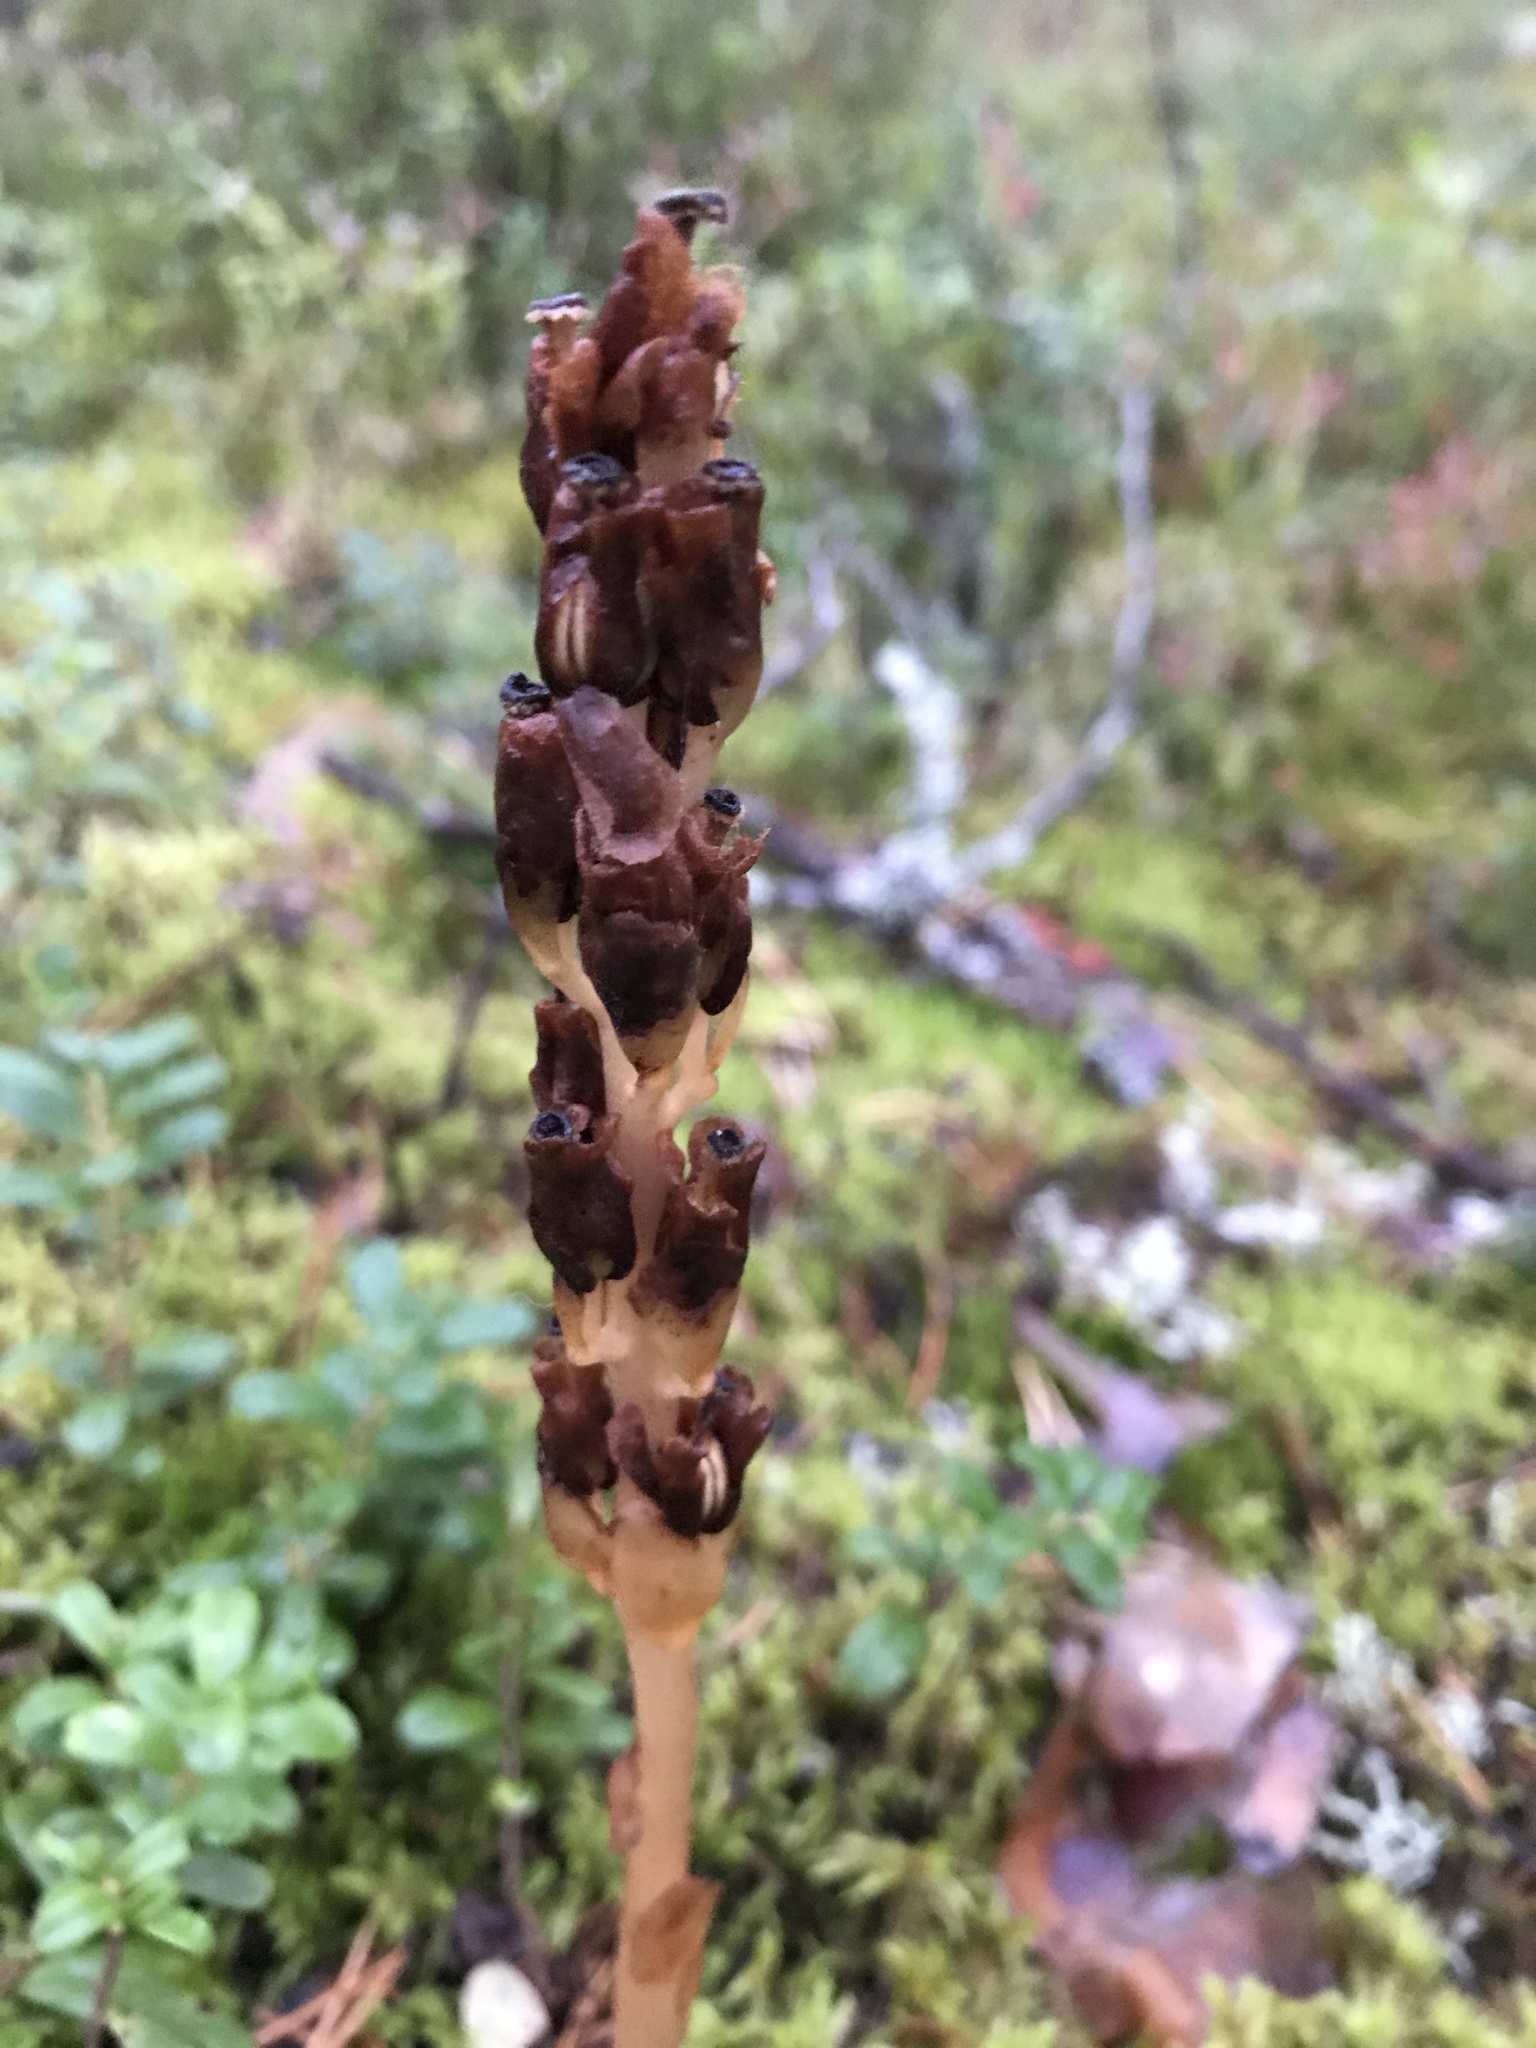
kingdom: Plantae
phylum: Tracheophyta
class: Magnoliopsida
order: Ericales
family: Ericaceae
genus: Hypopitys
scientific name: Hypopitys monotropa
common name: Yellow bird's-nest
